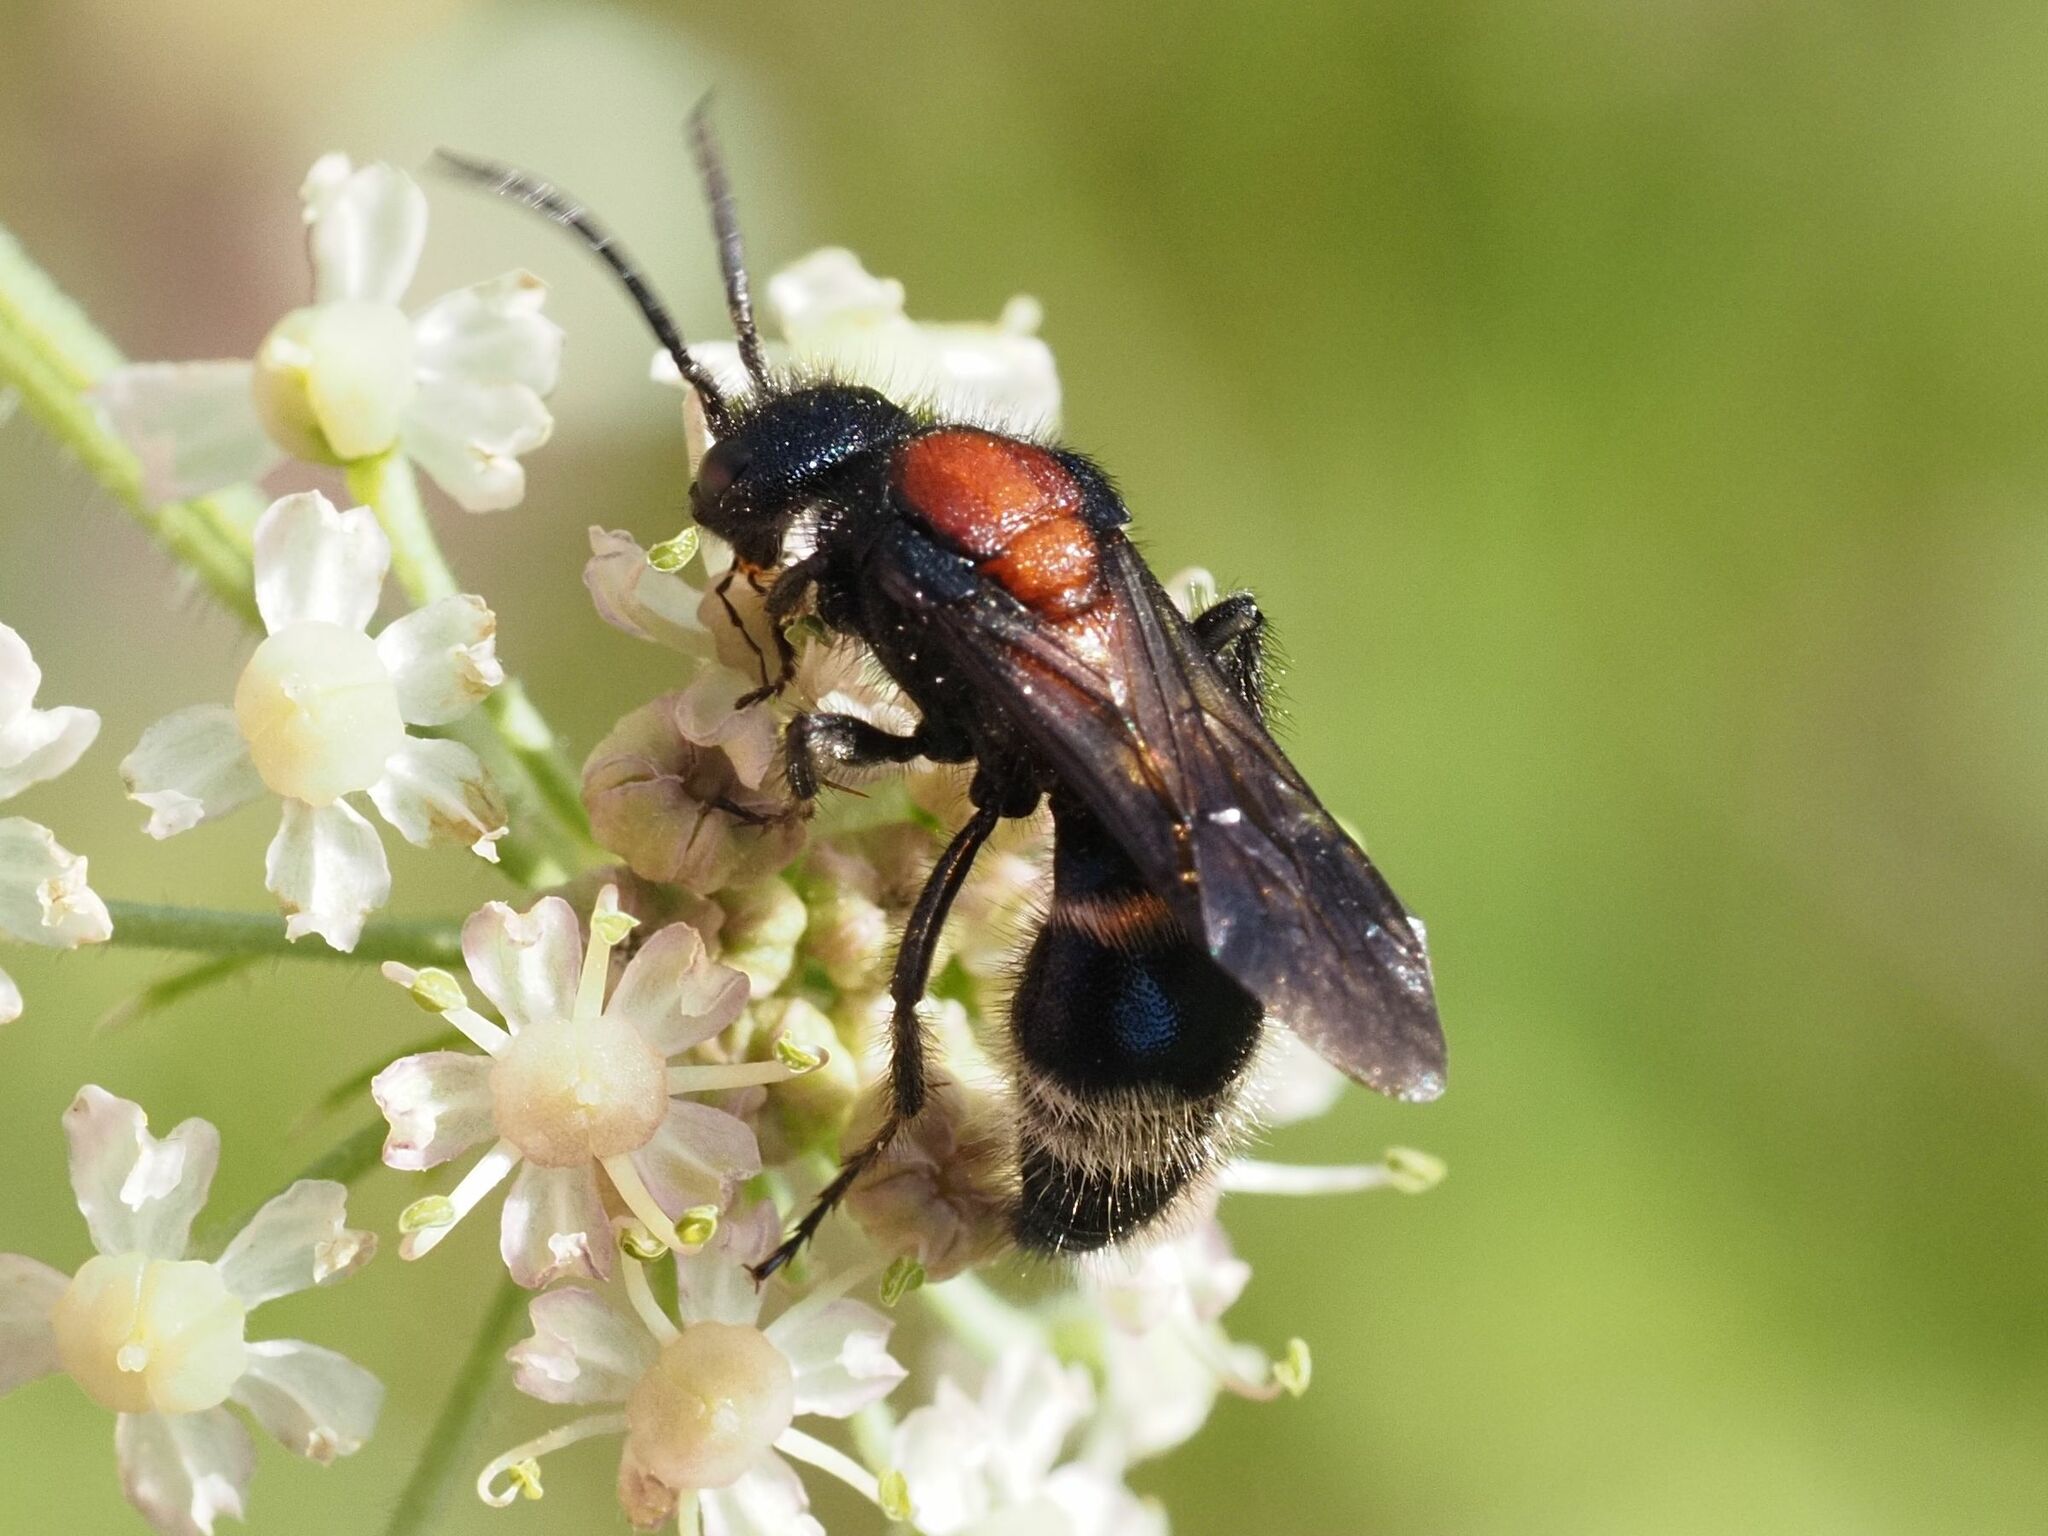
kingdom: Animalia
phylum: Arthropoda
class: Insecta
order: Hymenoptera
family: Mutillidae
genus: Mutilla
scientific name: Mutilla europaea
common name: Large velvet ant
